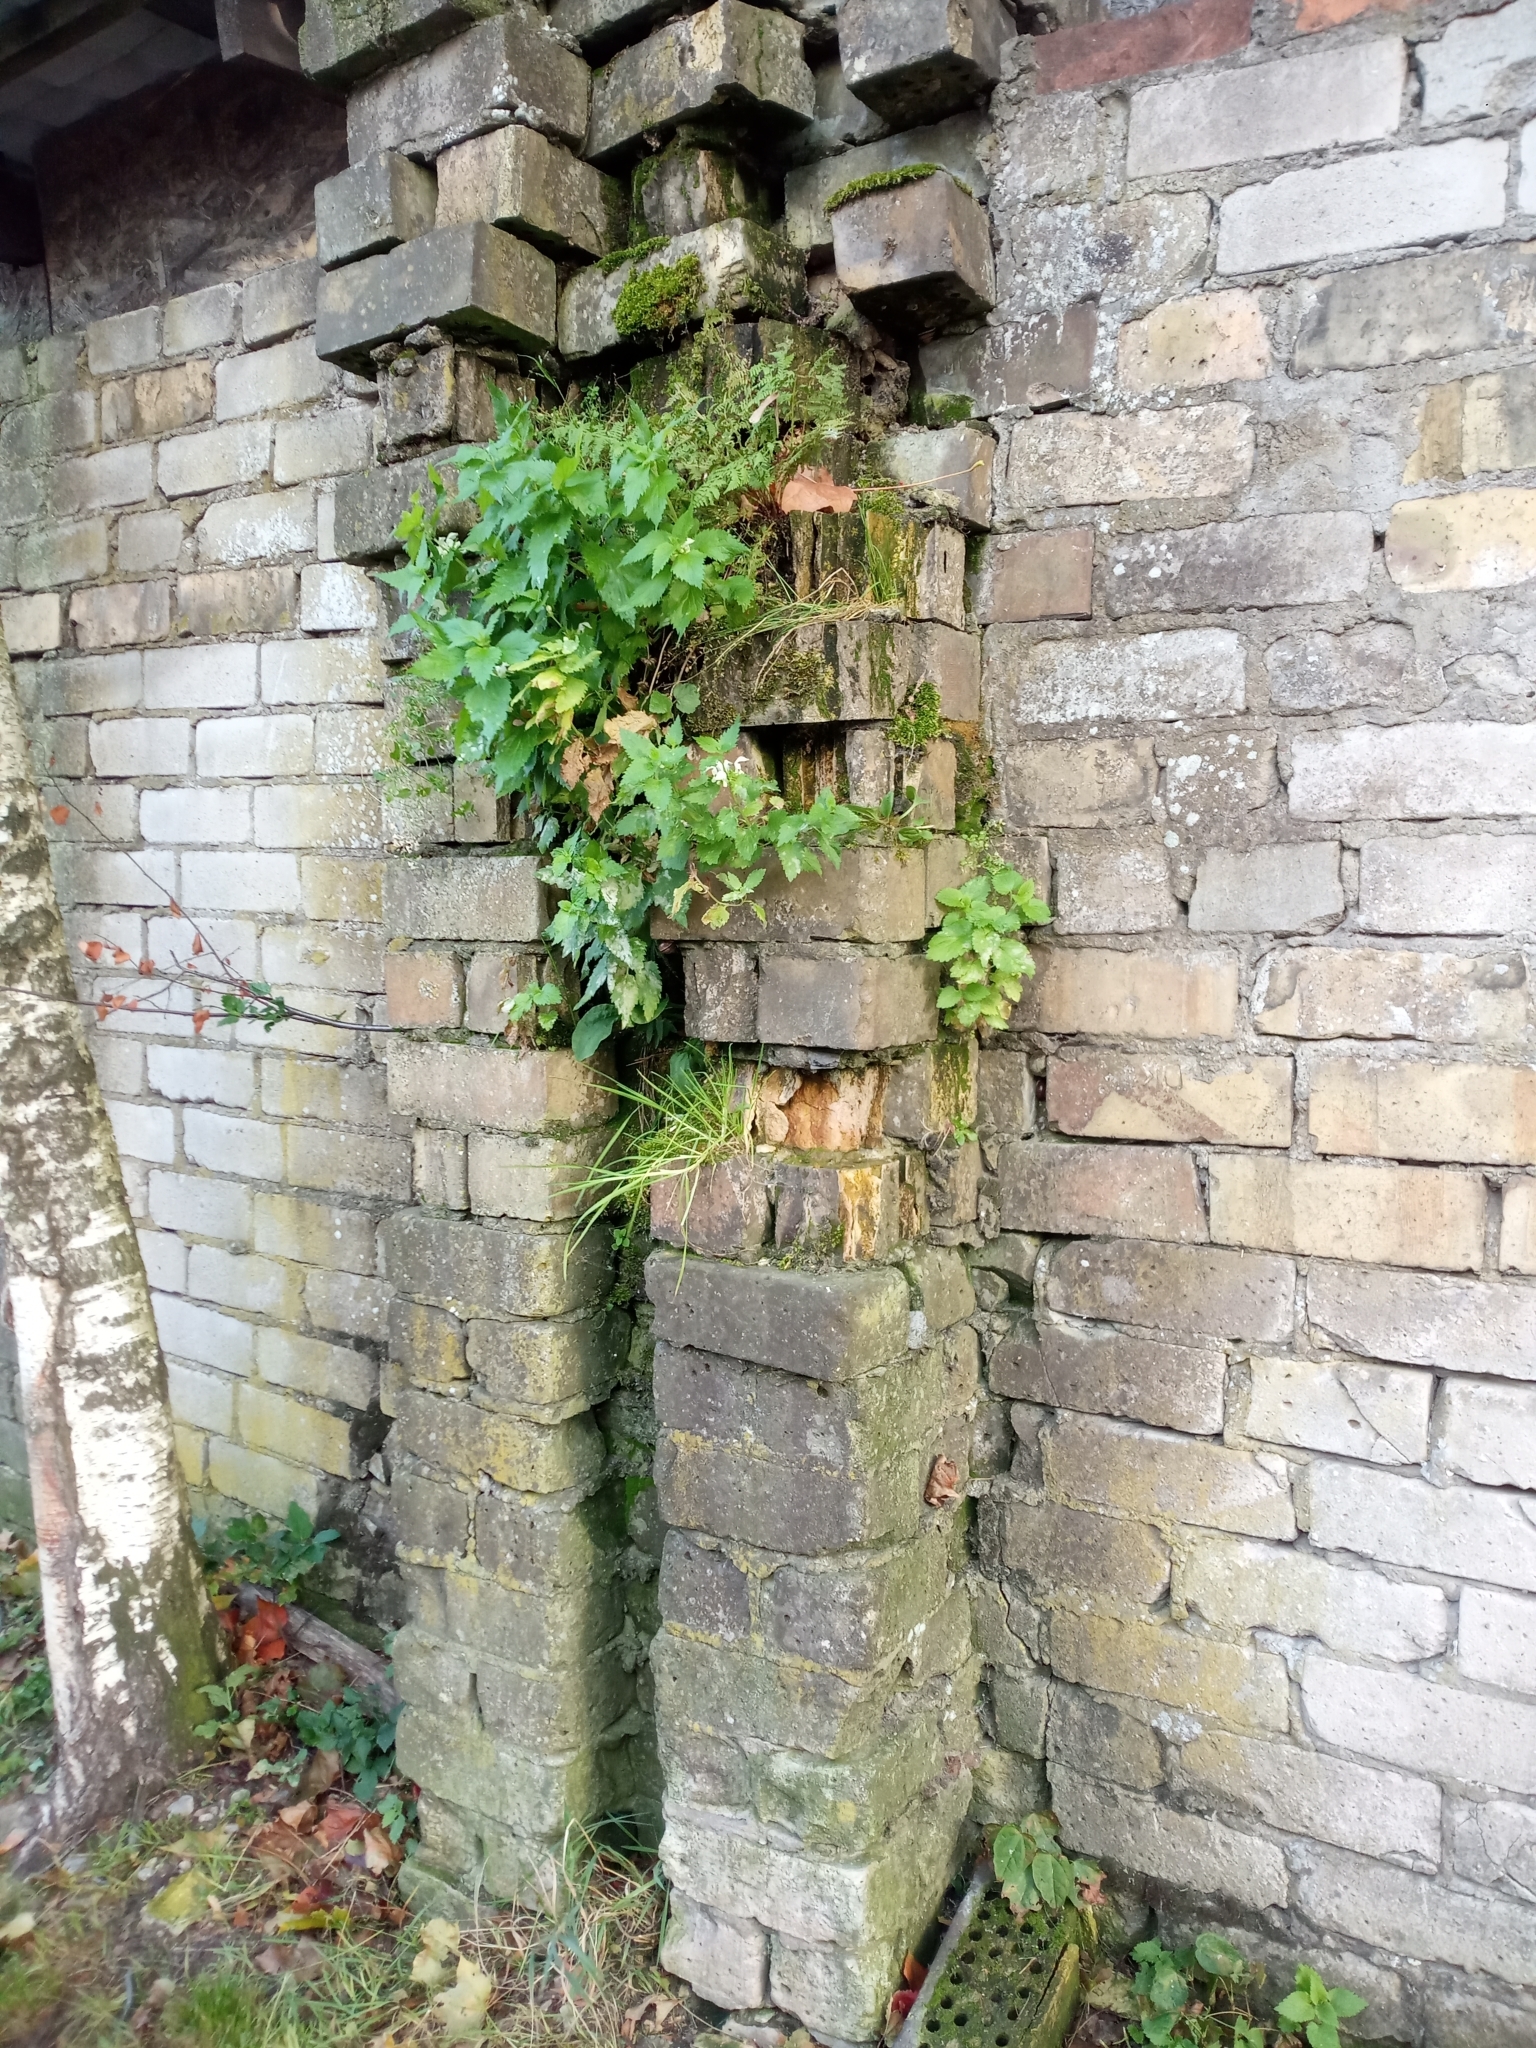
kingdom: Plantae
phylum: Tracheophyta
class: Magnoliopsida
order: Lamiales
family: Lamiaceae
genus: Lamium
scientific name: Lamium album
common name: White dead-nettle
